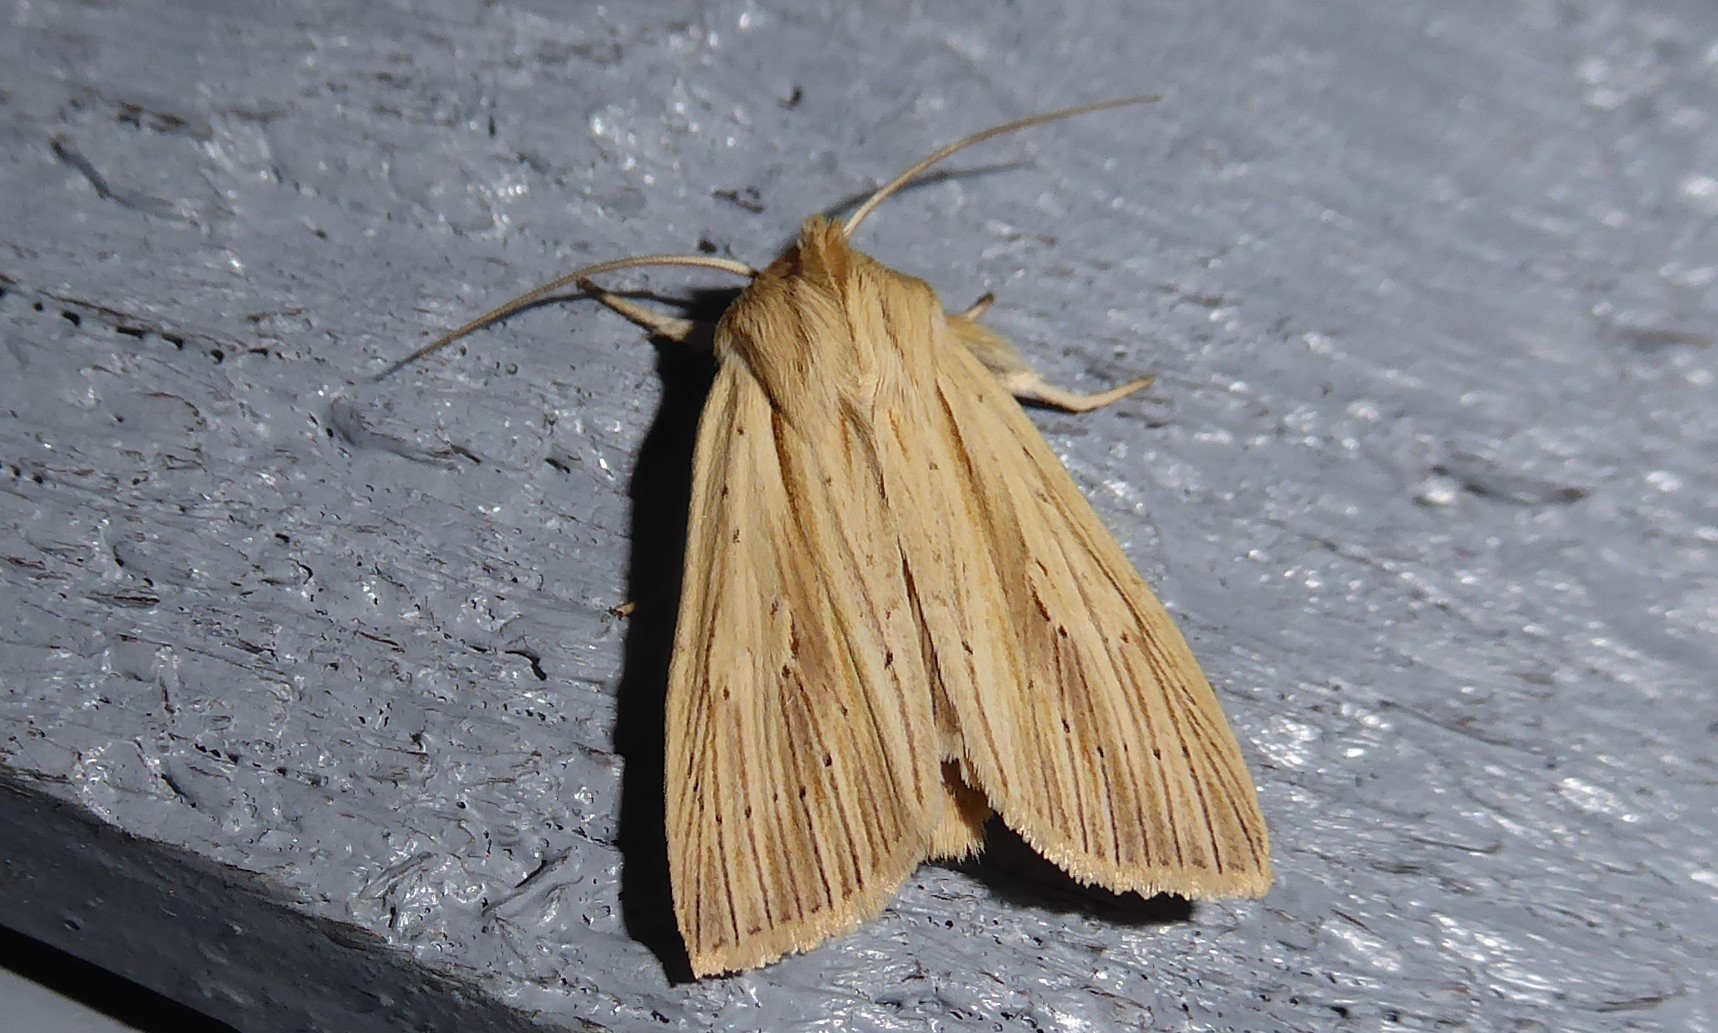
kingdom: Animalia
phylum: Arthropoda
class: Insecta
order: Lepidoptera
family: Noctuidae
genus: Ichneutica
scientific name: Ichneutica semivittata
